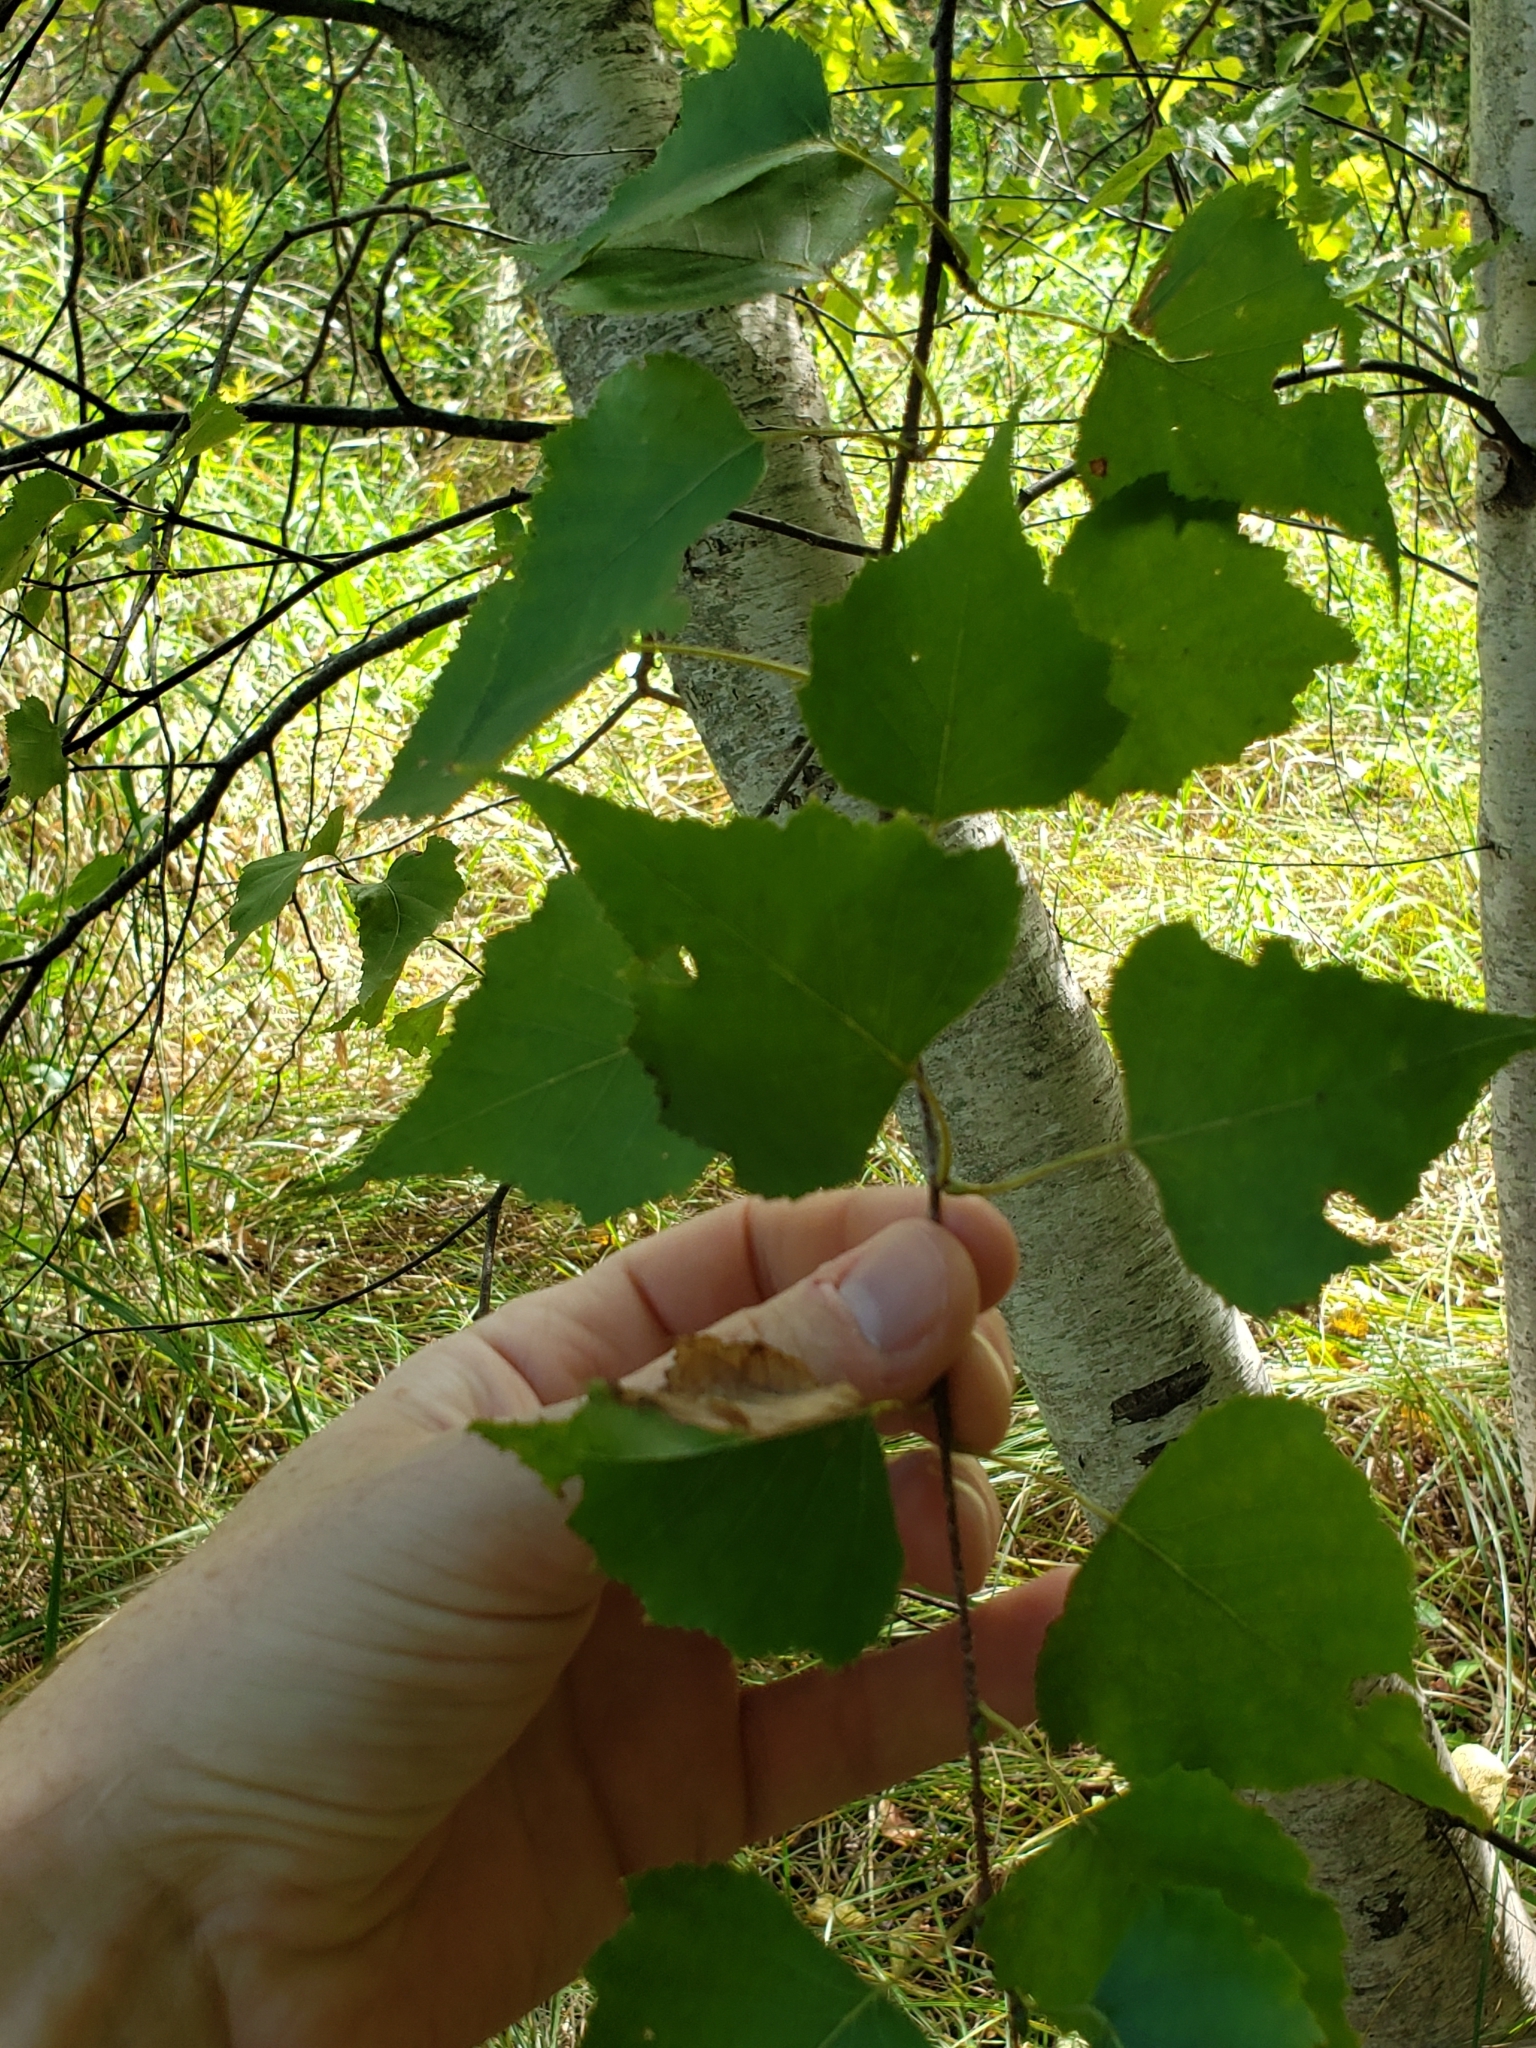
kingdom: Plantae
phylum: Tracheophyta
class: Magnoliopsida
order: Fagales
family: Betulaceae
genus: Betula
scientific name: Betula populifolia
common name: Fire birch
